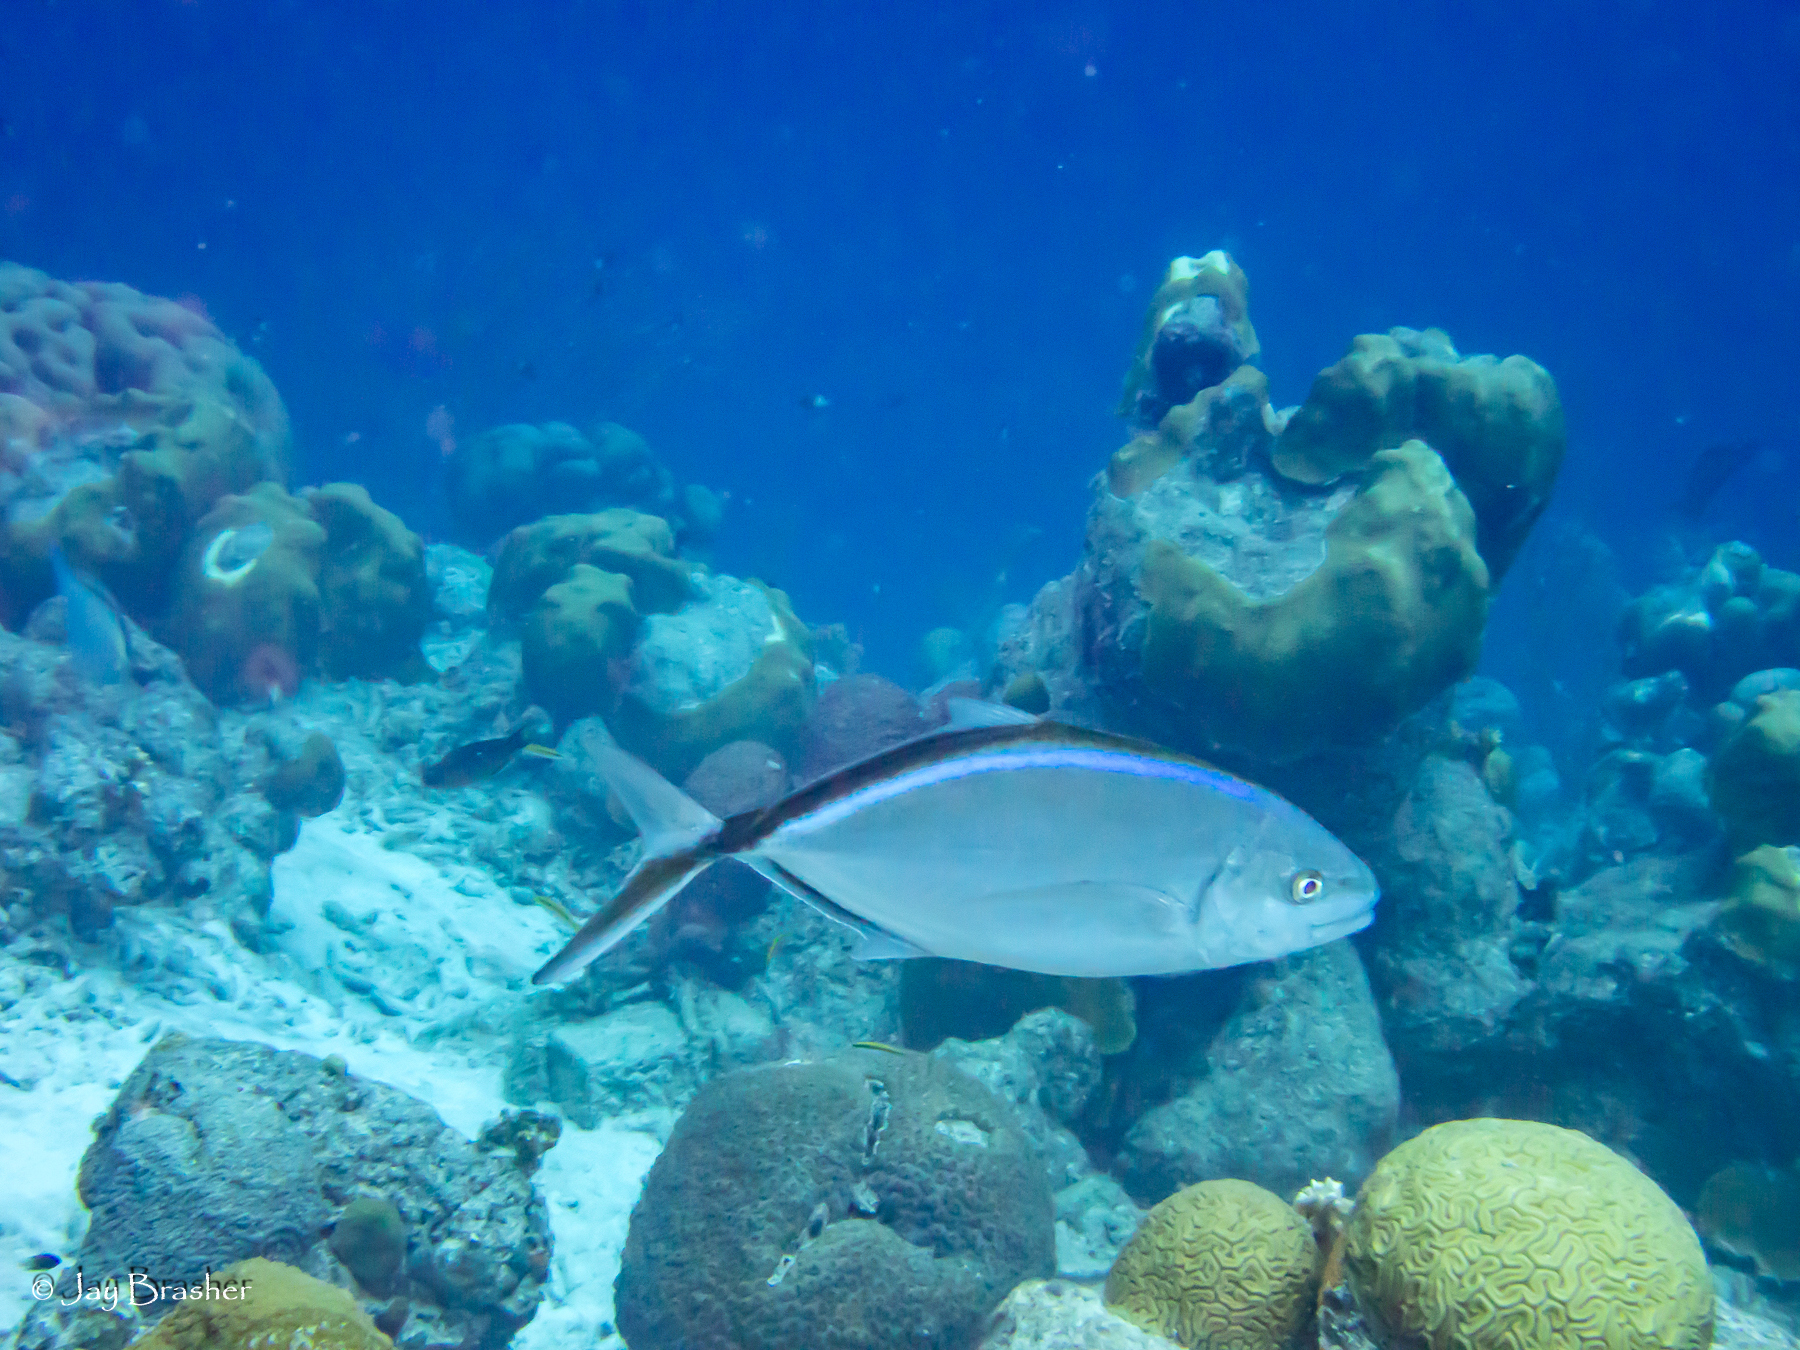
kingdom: Animalia
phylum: Chordata
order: Perciformes
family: Carangidae
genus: Caranx
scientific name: Caranx ruber
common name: Bar jack
